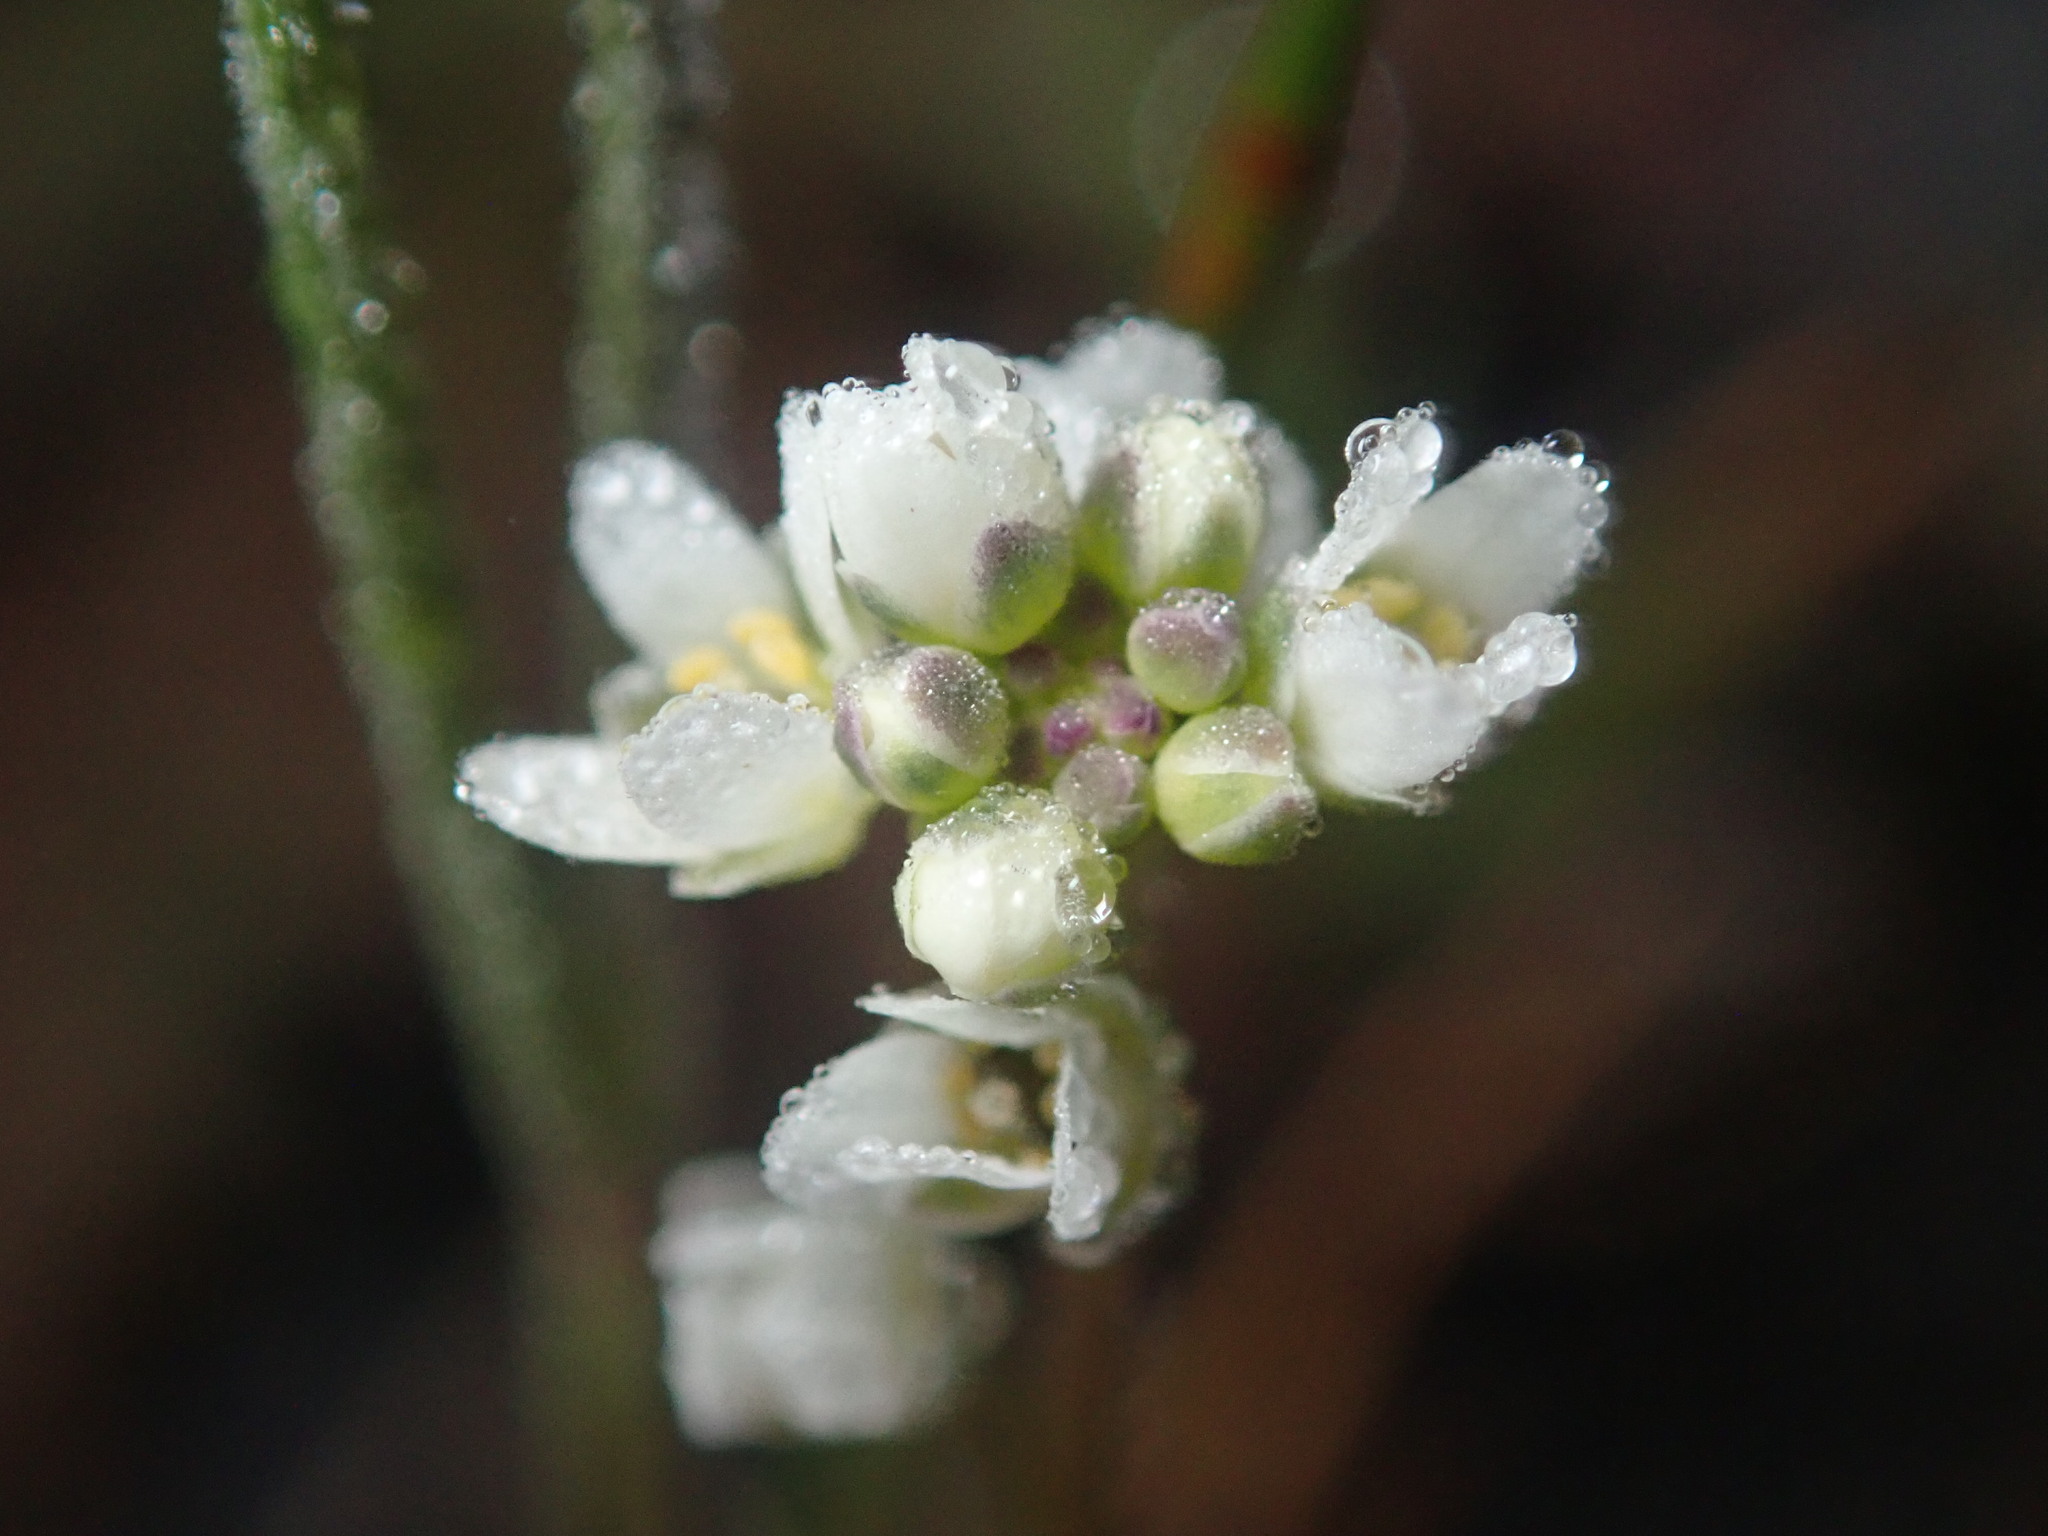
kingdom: Plantae
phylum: Tracheophyta
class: Magnoliopsida
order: Brassicales
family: Brassicaceae
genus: Athysanus
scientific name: Athysanus pusillus
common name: Common sandweed
